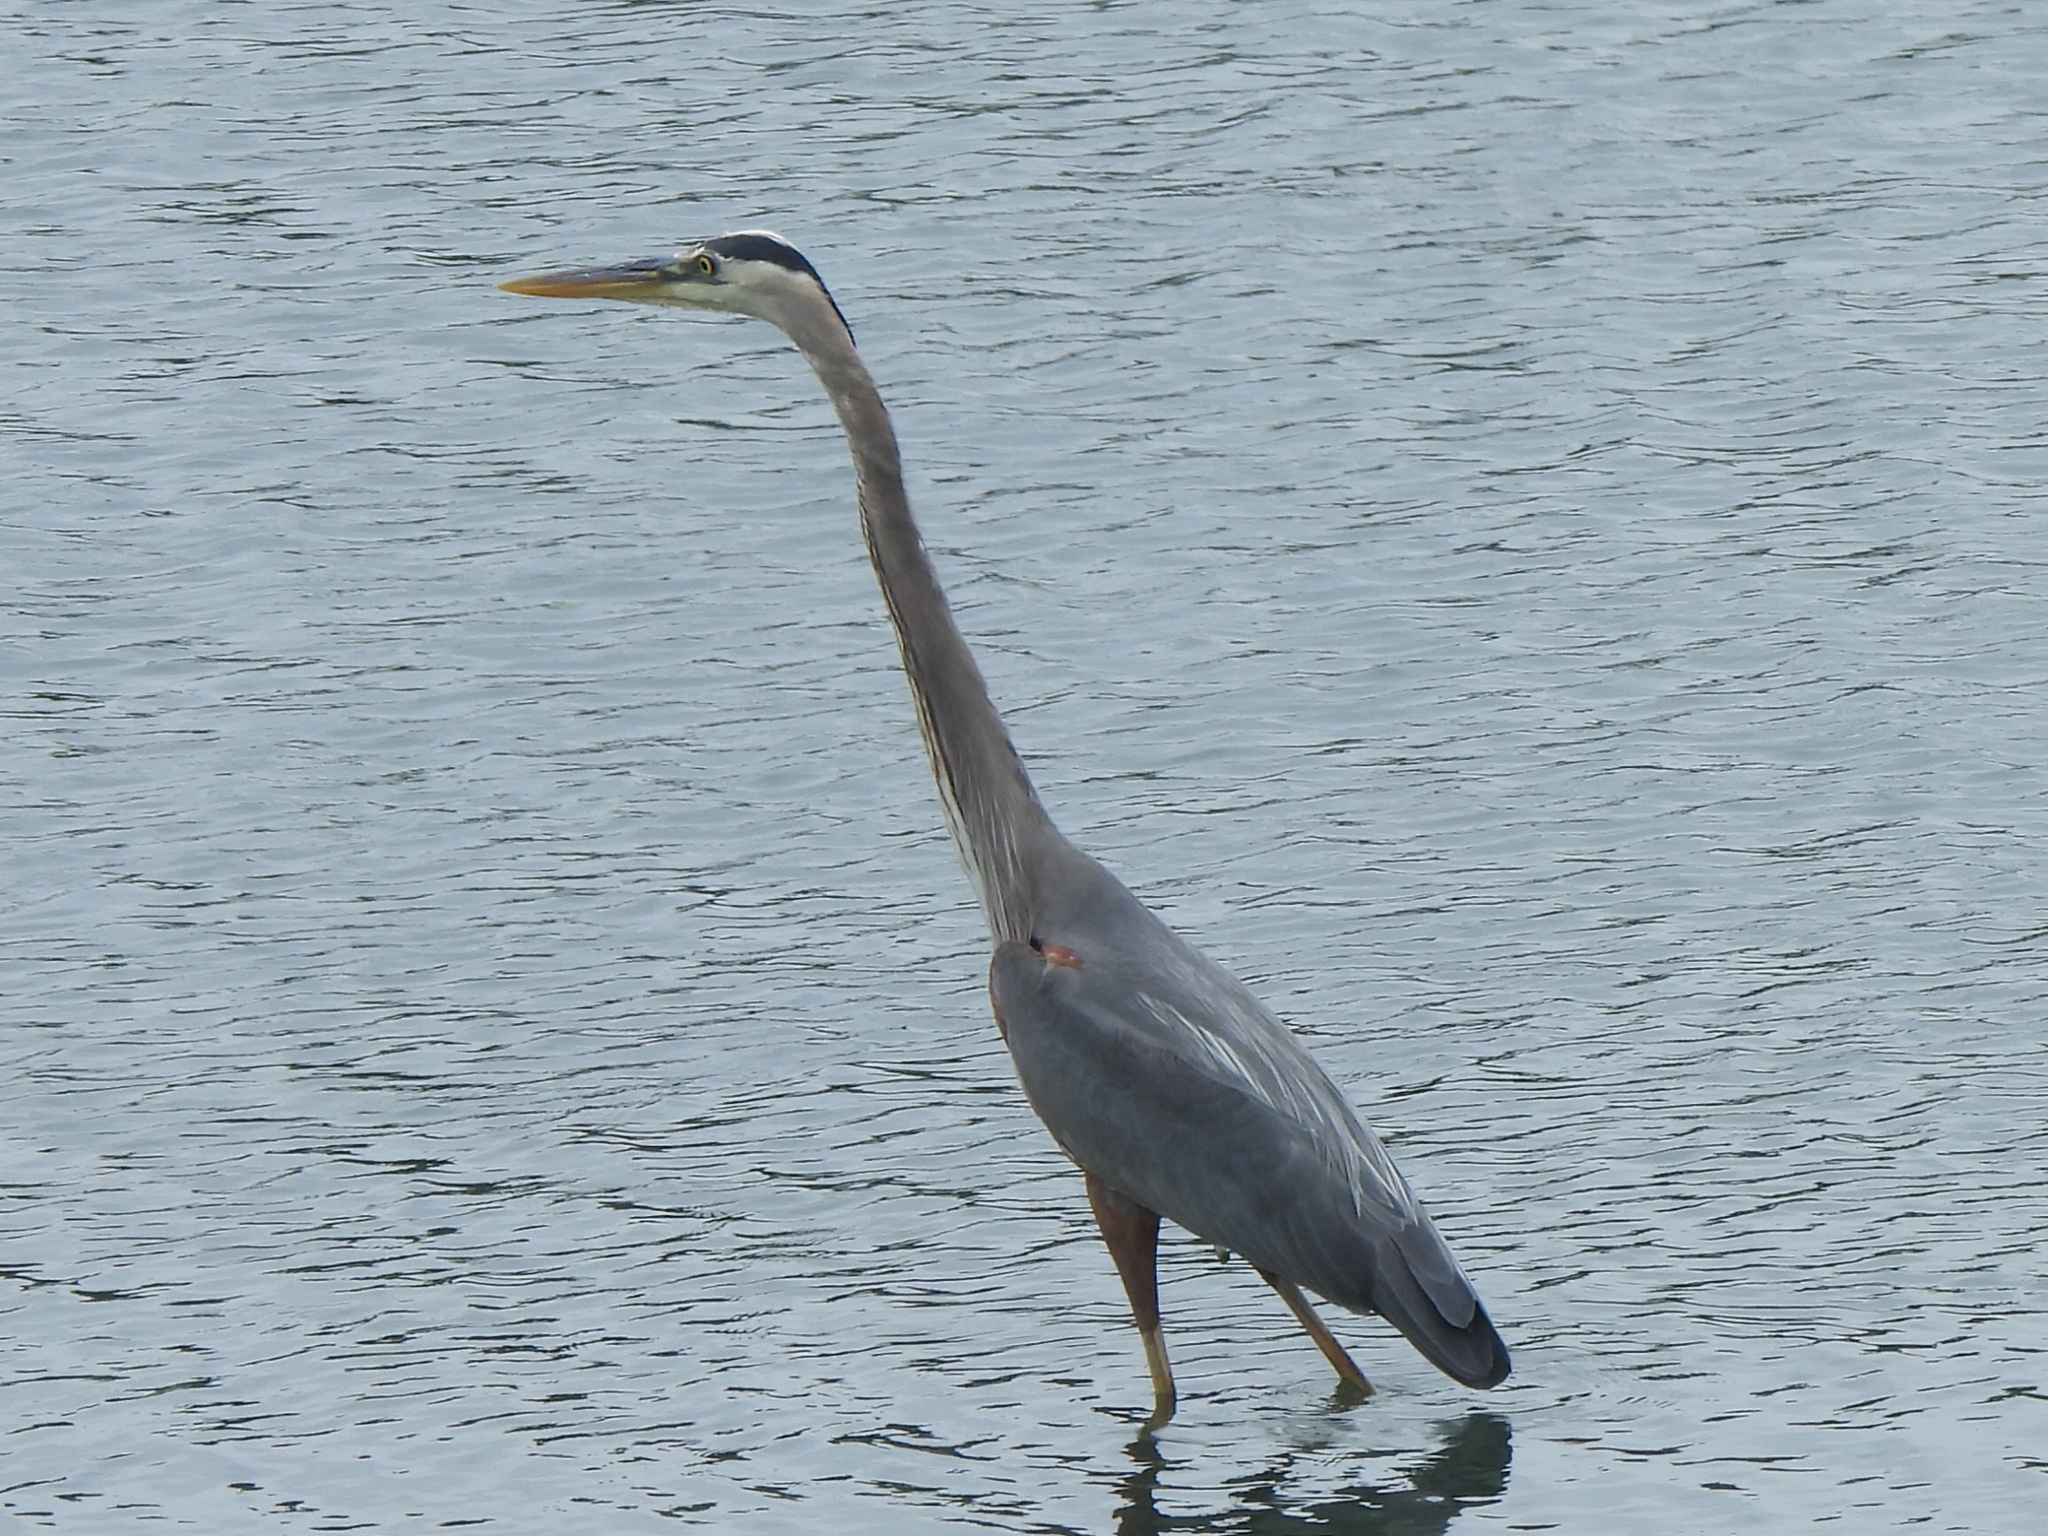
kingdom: Animalia
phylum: Chordata
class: Aves
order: Pelecaniformes
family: Ardeidae
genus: Ardea
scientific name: Ardea herodias
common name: Great blue heron
